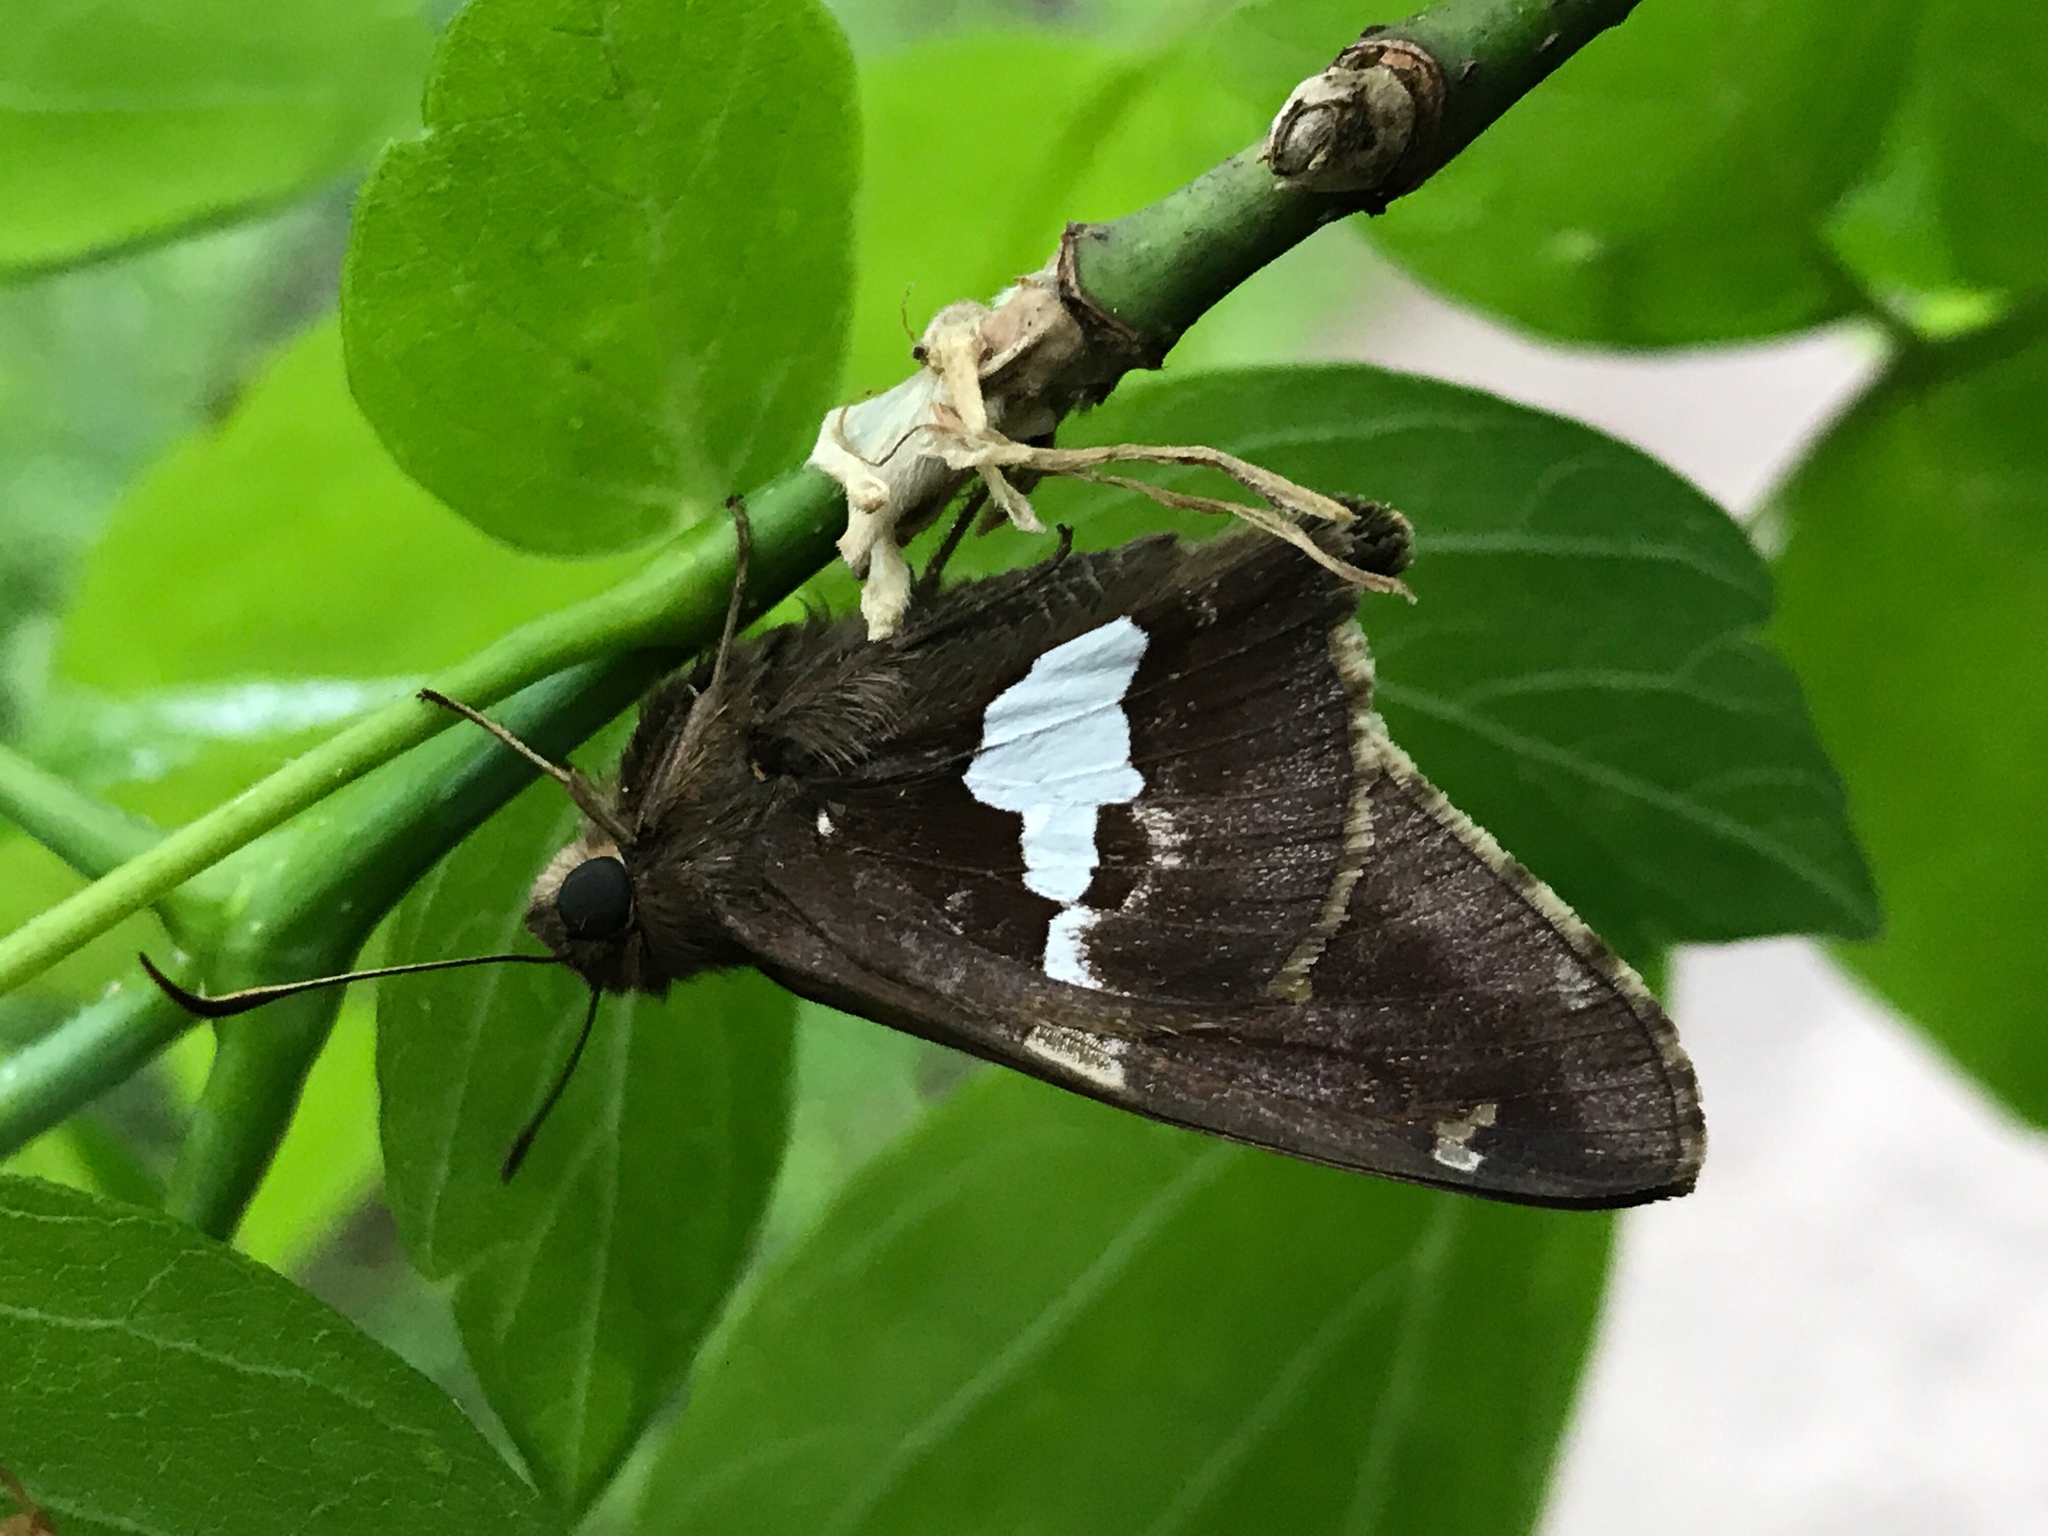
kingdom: Animalia
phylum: Arthropoda
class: Insecta
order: Lepidoptera
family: Hesperiidae
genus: Epargyreus
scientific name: Epargyreus clarus
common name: Silver-spotted skipper
